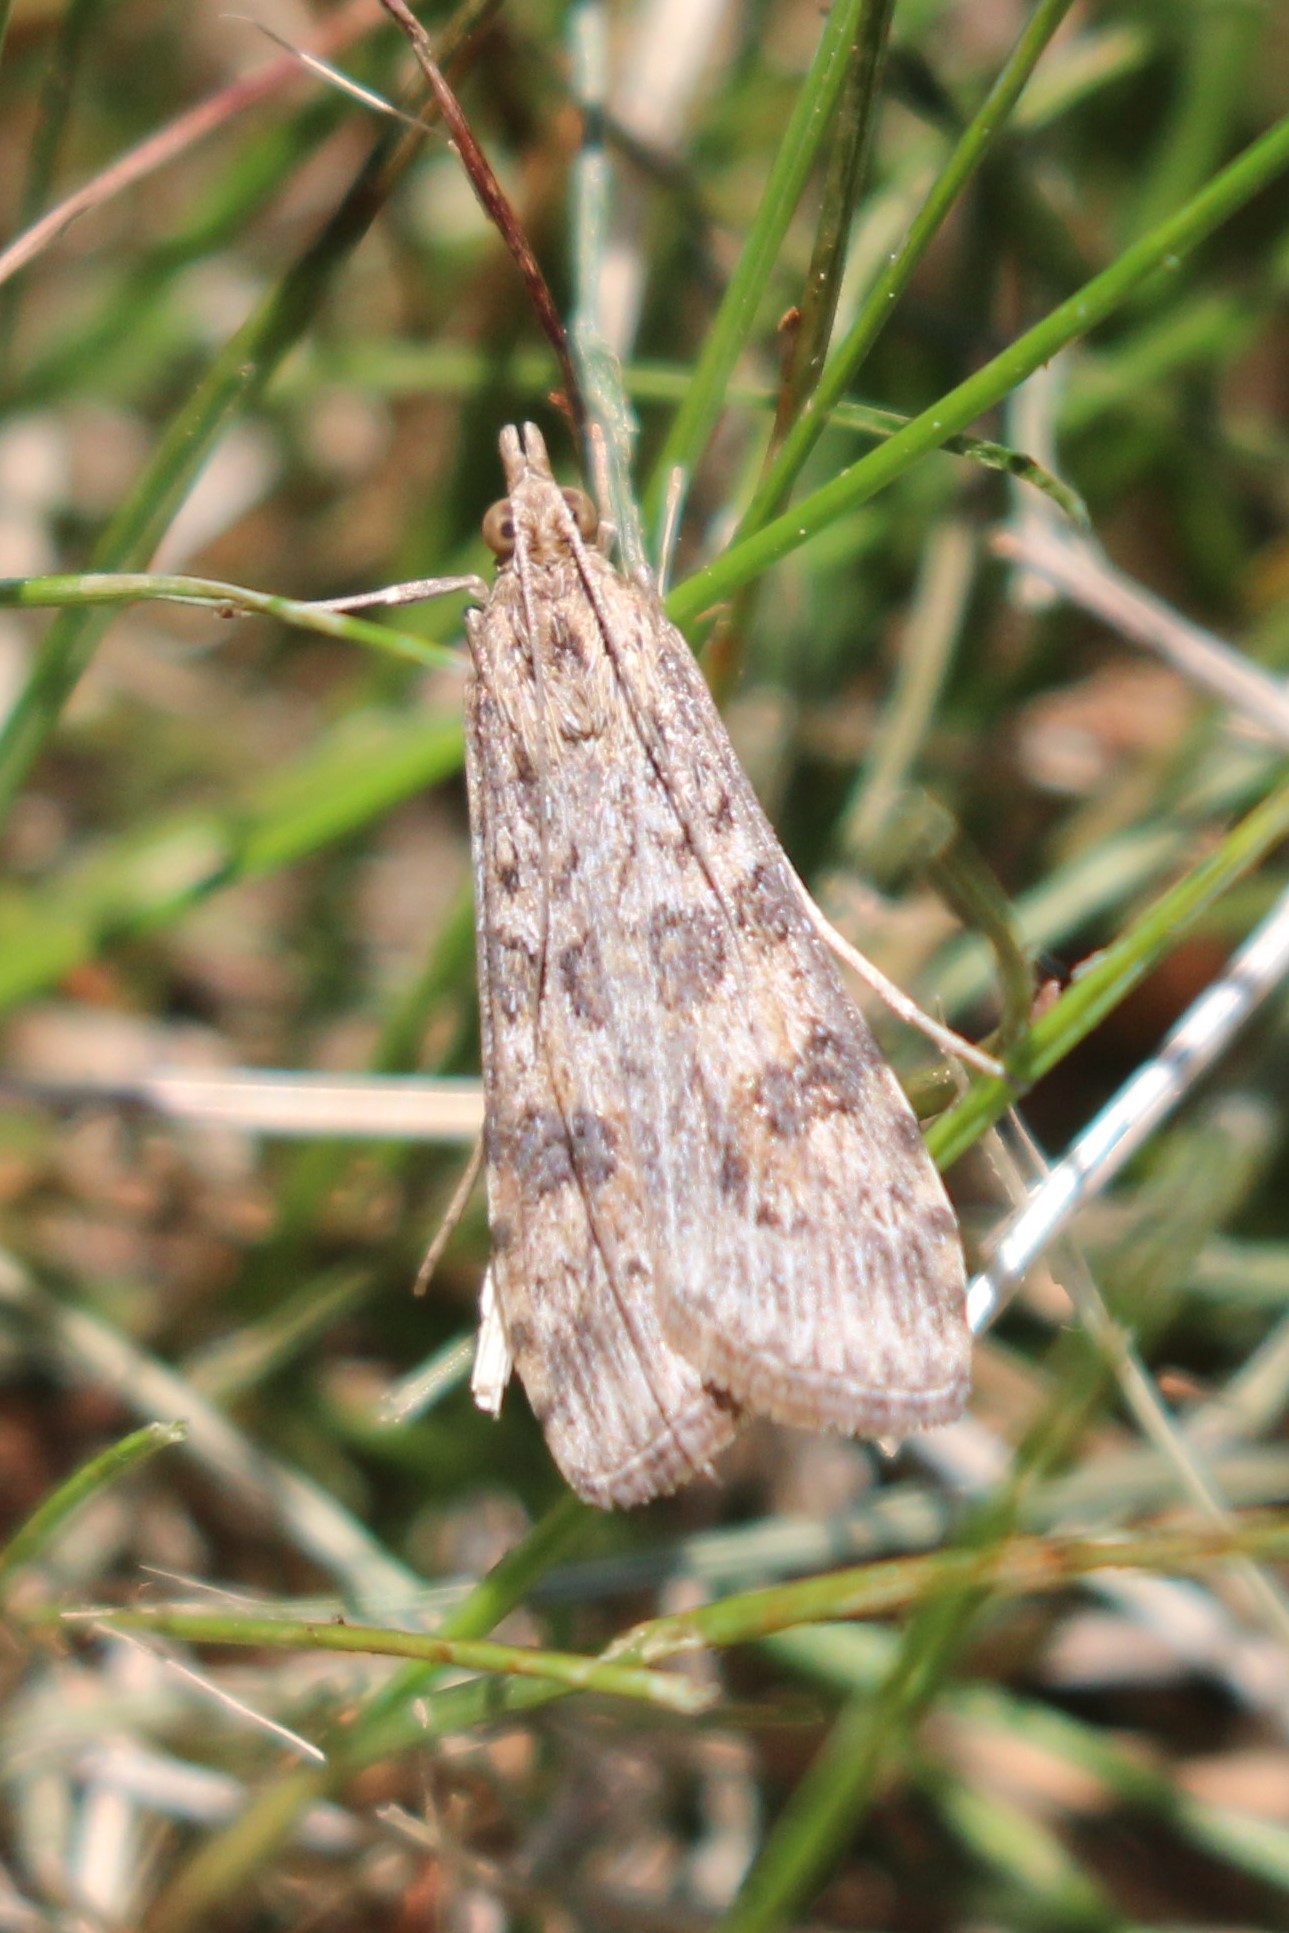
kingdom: Animalia
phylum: Arthropoda
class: Insecta
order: Lepidoptera
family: Crambidae
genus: Nomophila
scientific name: Nomophila nearctica
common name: American rush veneer
